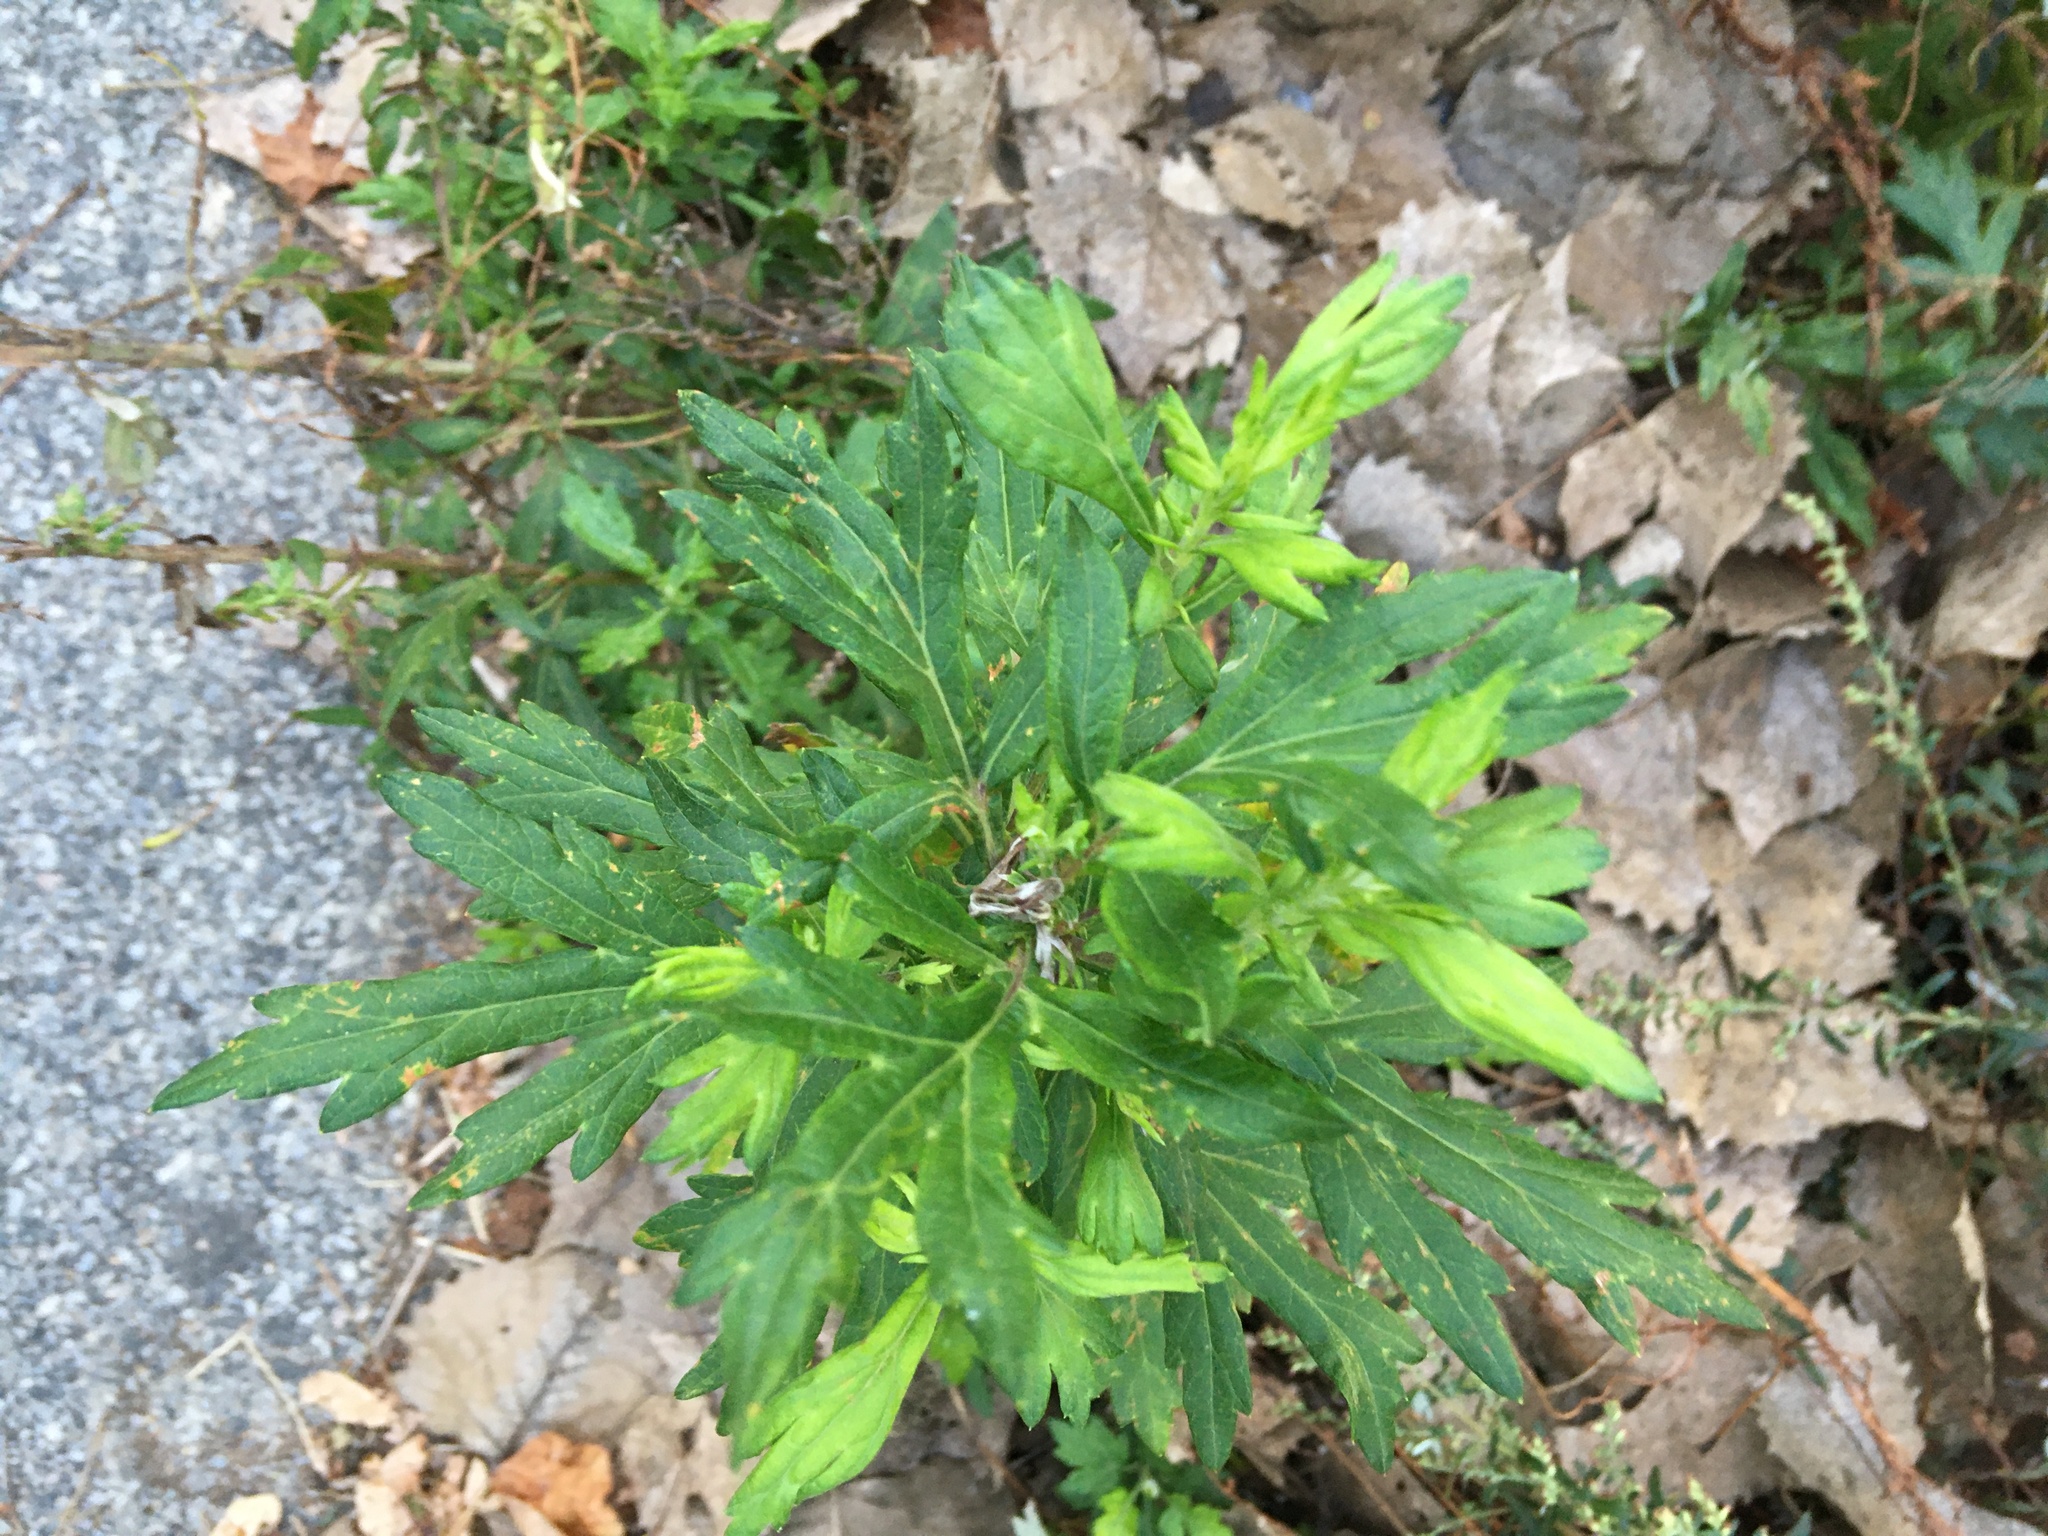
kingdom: Plantae
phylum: Tracheophyta
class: Magnoliopsida
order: Asterales
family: Asteraceae
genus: Artemisia
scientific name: Artemisia vulgaris
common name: Mugwort
